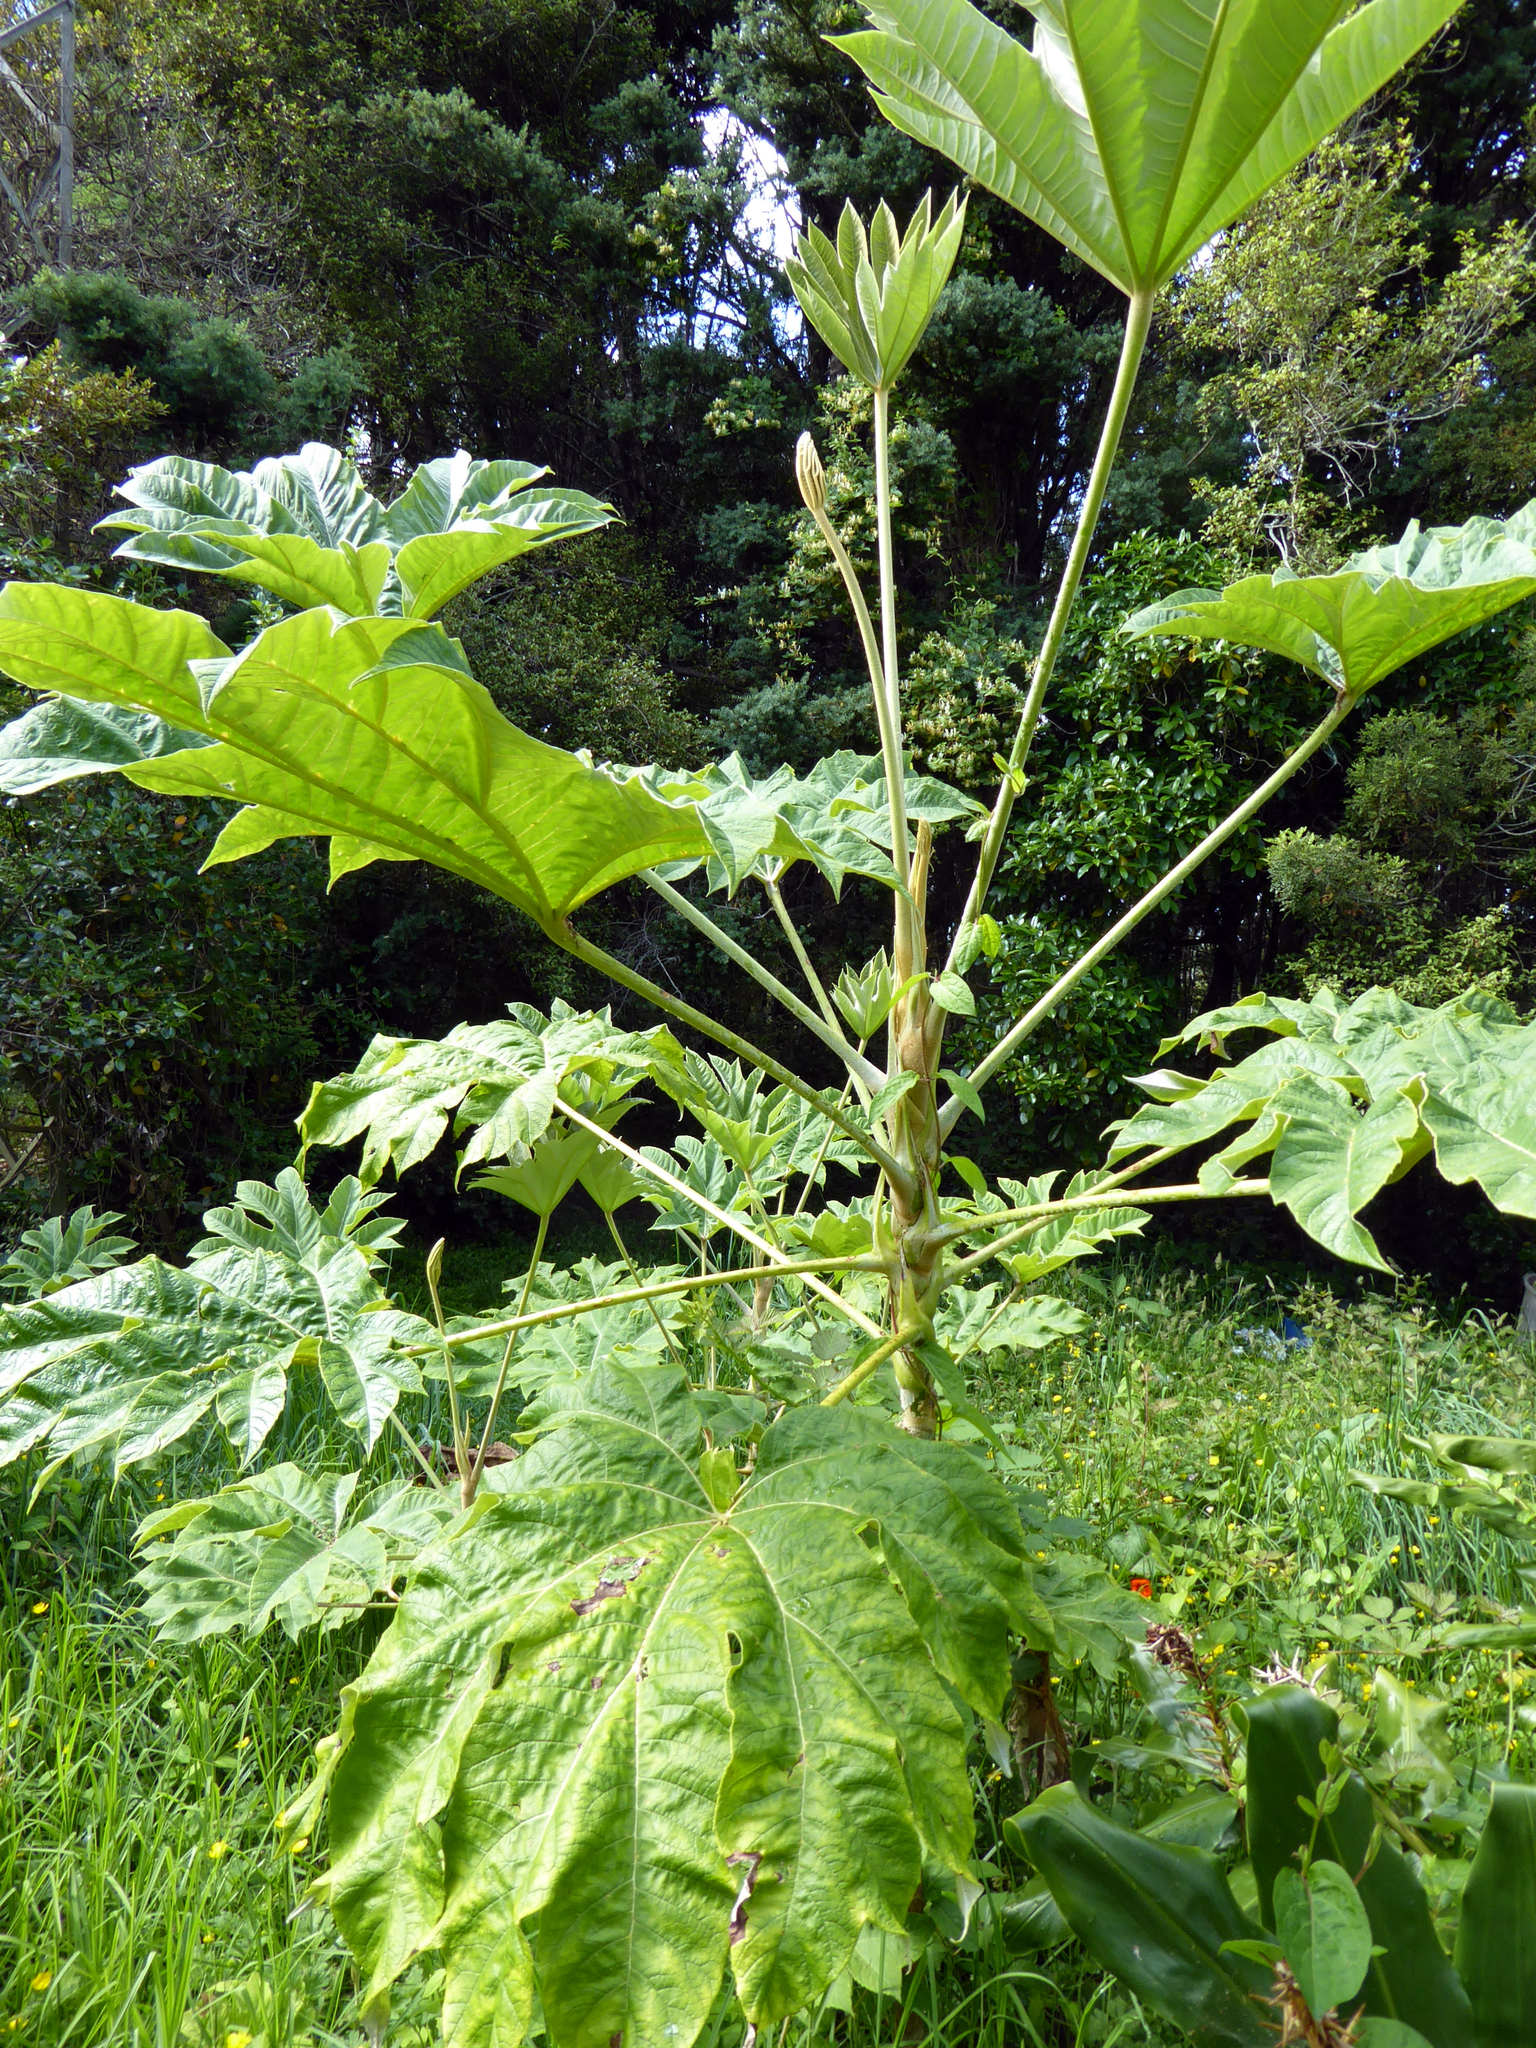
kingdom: Plantae
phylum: Tracheophyta
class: Magnoliopsida
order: Apiales
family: Araliaceae
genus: Tetrapanax
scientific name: Tetrapanax papyrifer
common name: Rice-paper plant
